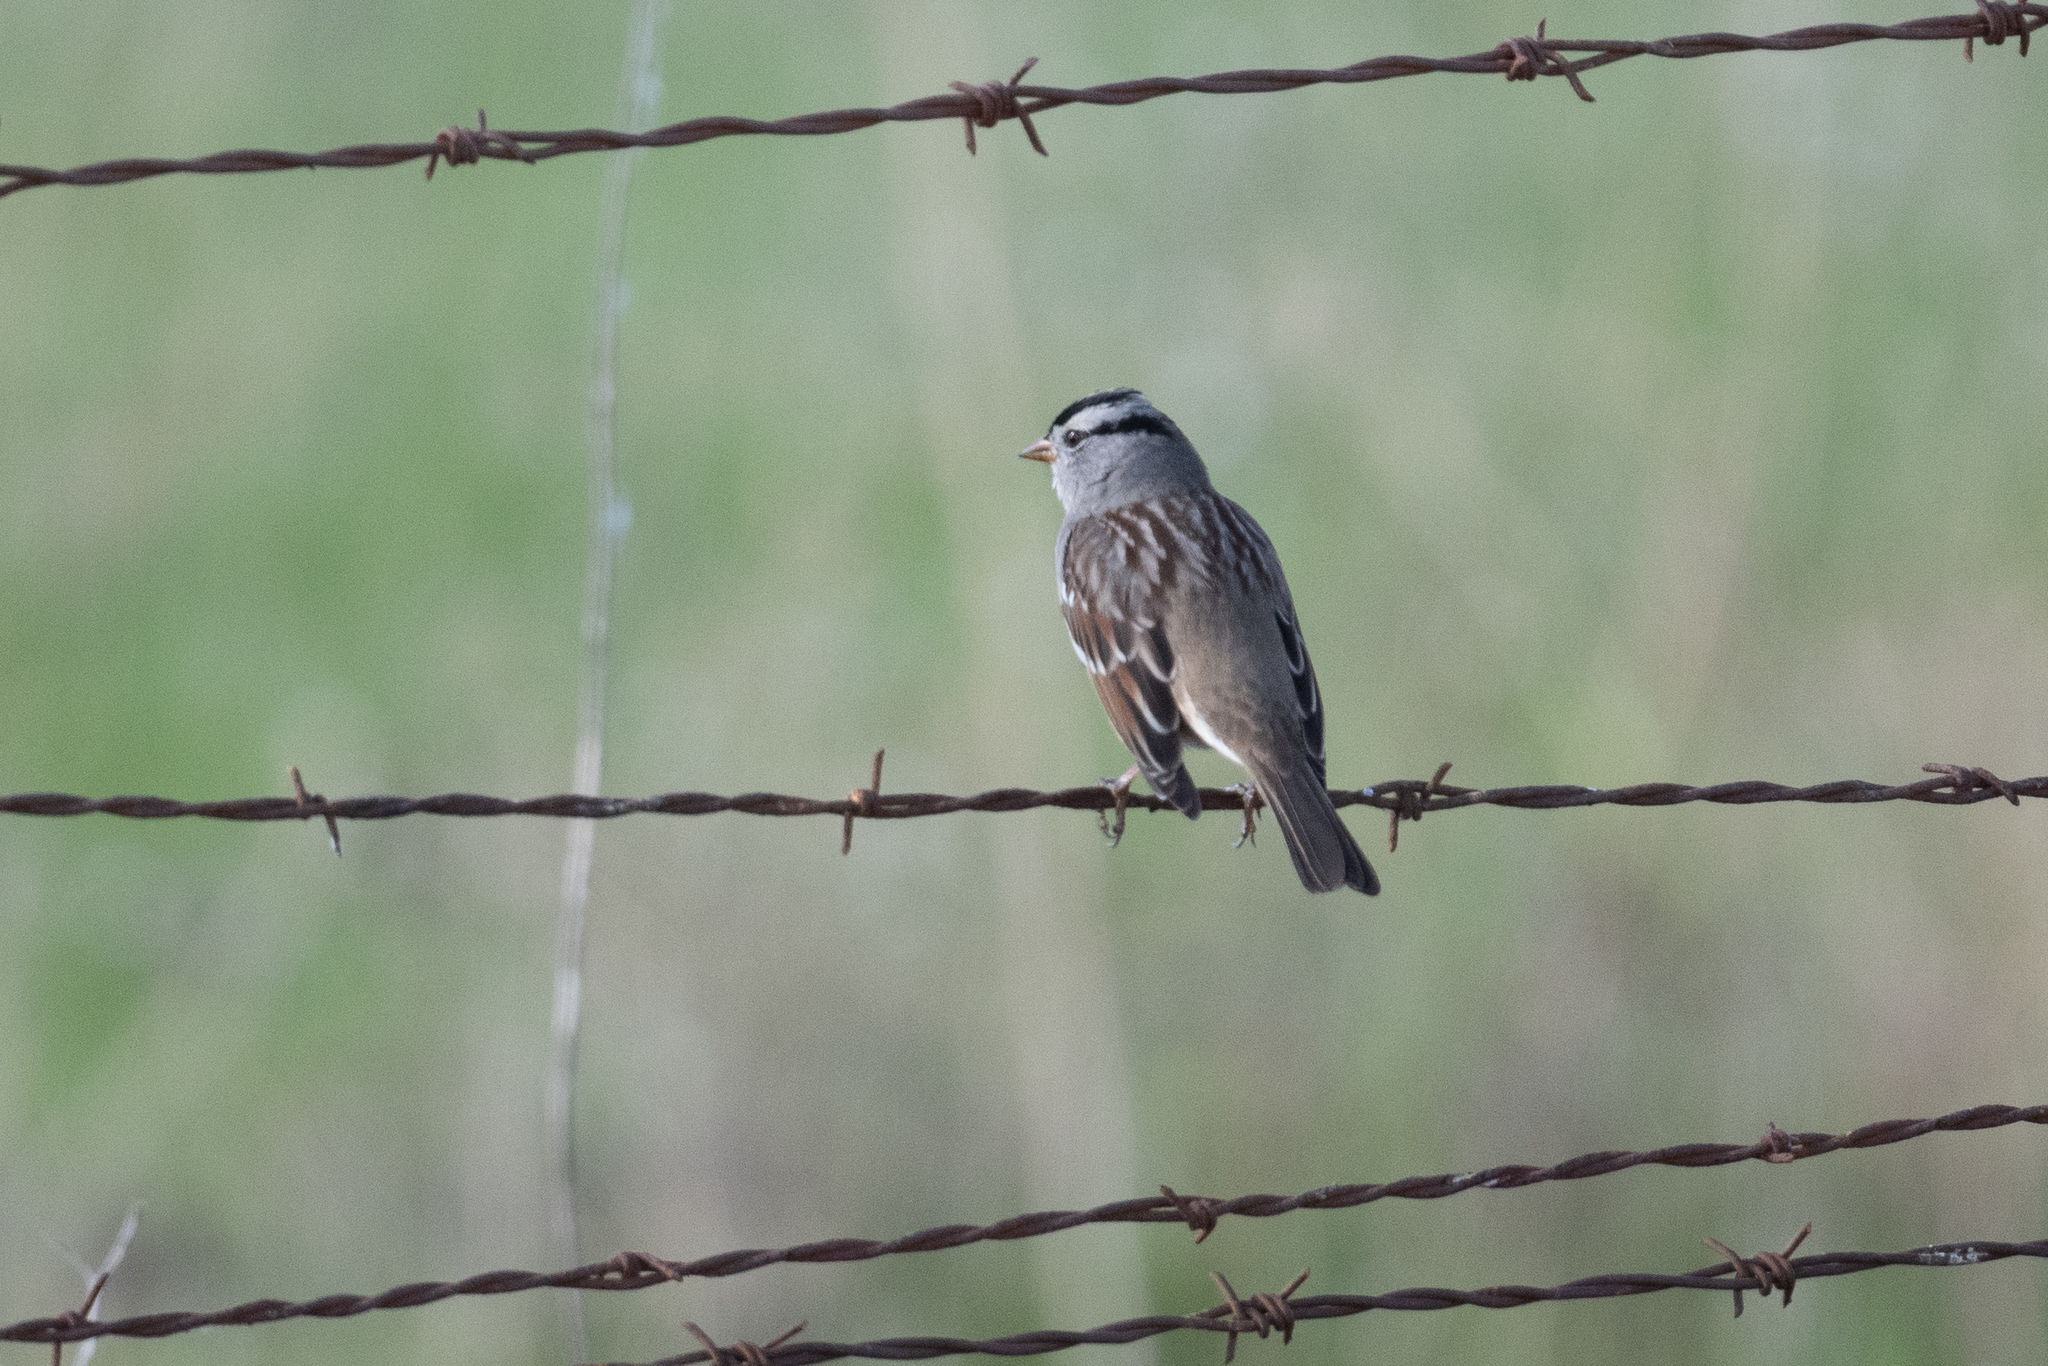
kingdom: Animalia
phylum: Chordata
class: Aves
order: Passeriformes
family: Passerellidae
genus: Zonotrichia
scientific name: Zonotrichia leucophrys
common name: White-crowned sparrow
